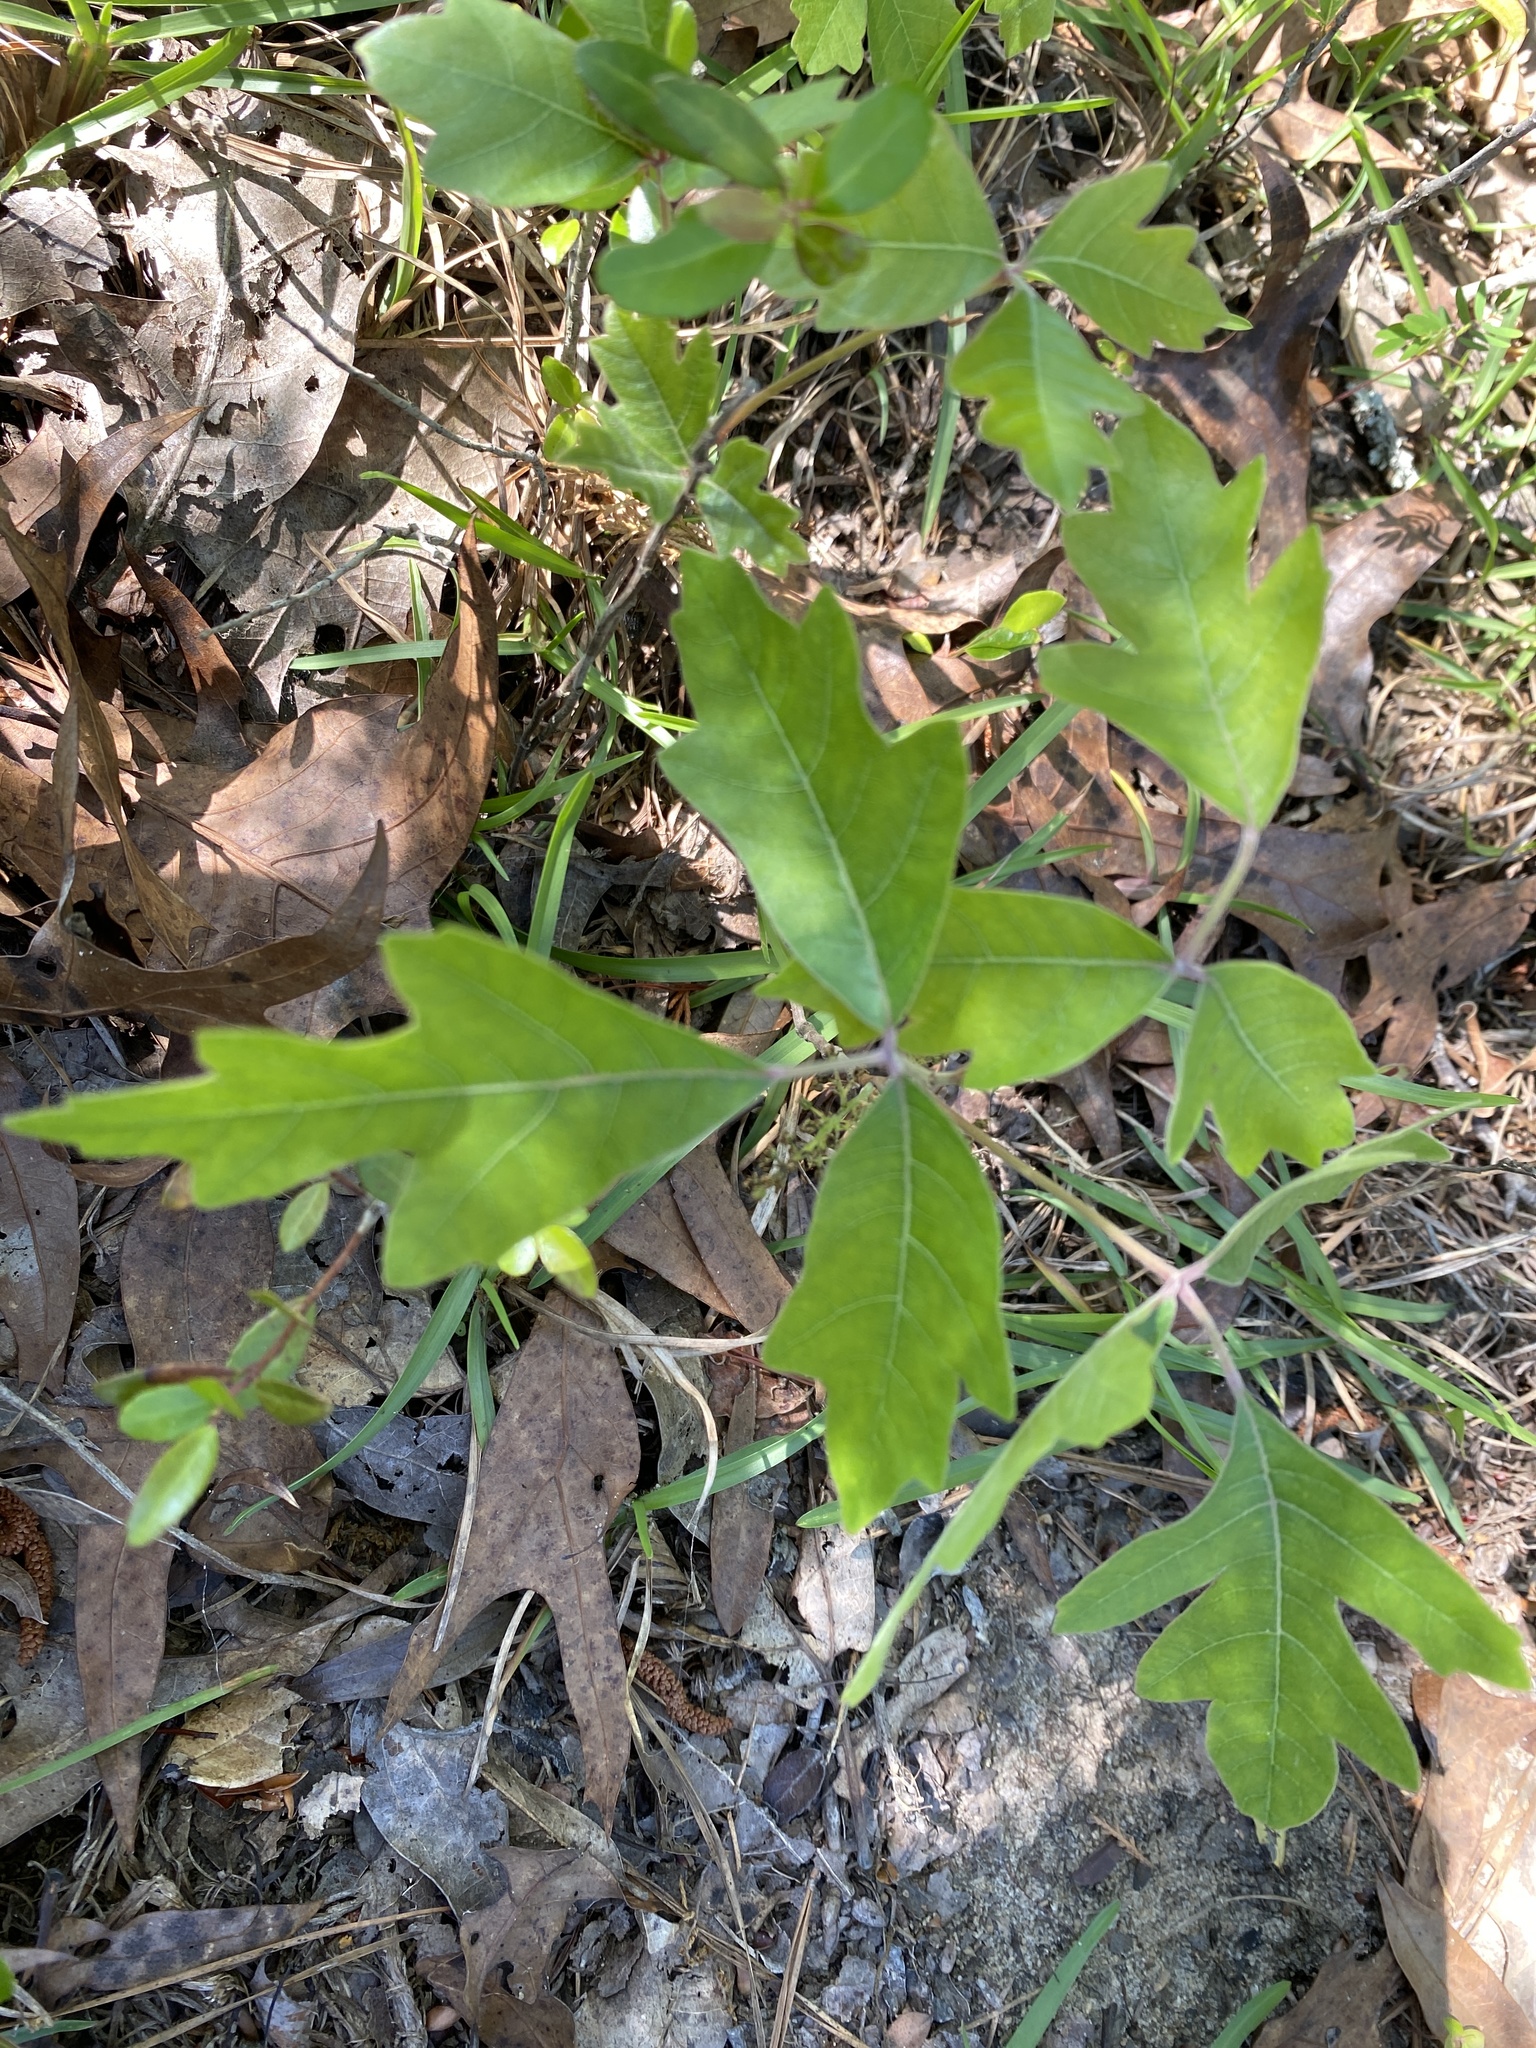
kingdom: Plantae
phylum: Tracheophyta
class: Magnoliopsida
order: Sapindales
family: Anacardiaceae
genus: Toxicodendron
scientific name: Toxicodendron pubescens
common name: Eastern poison-oak
